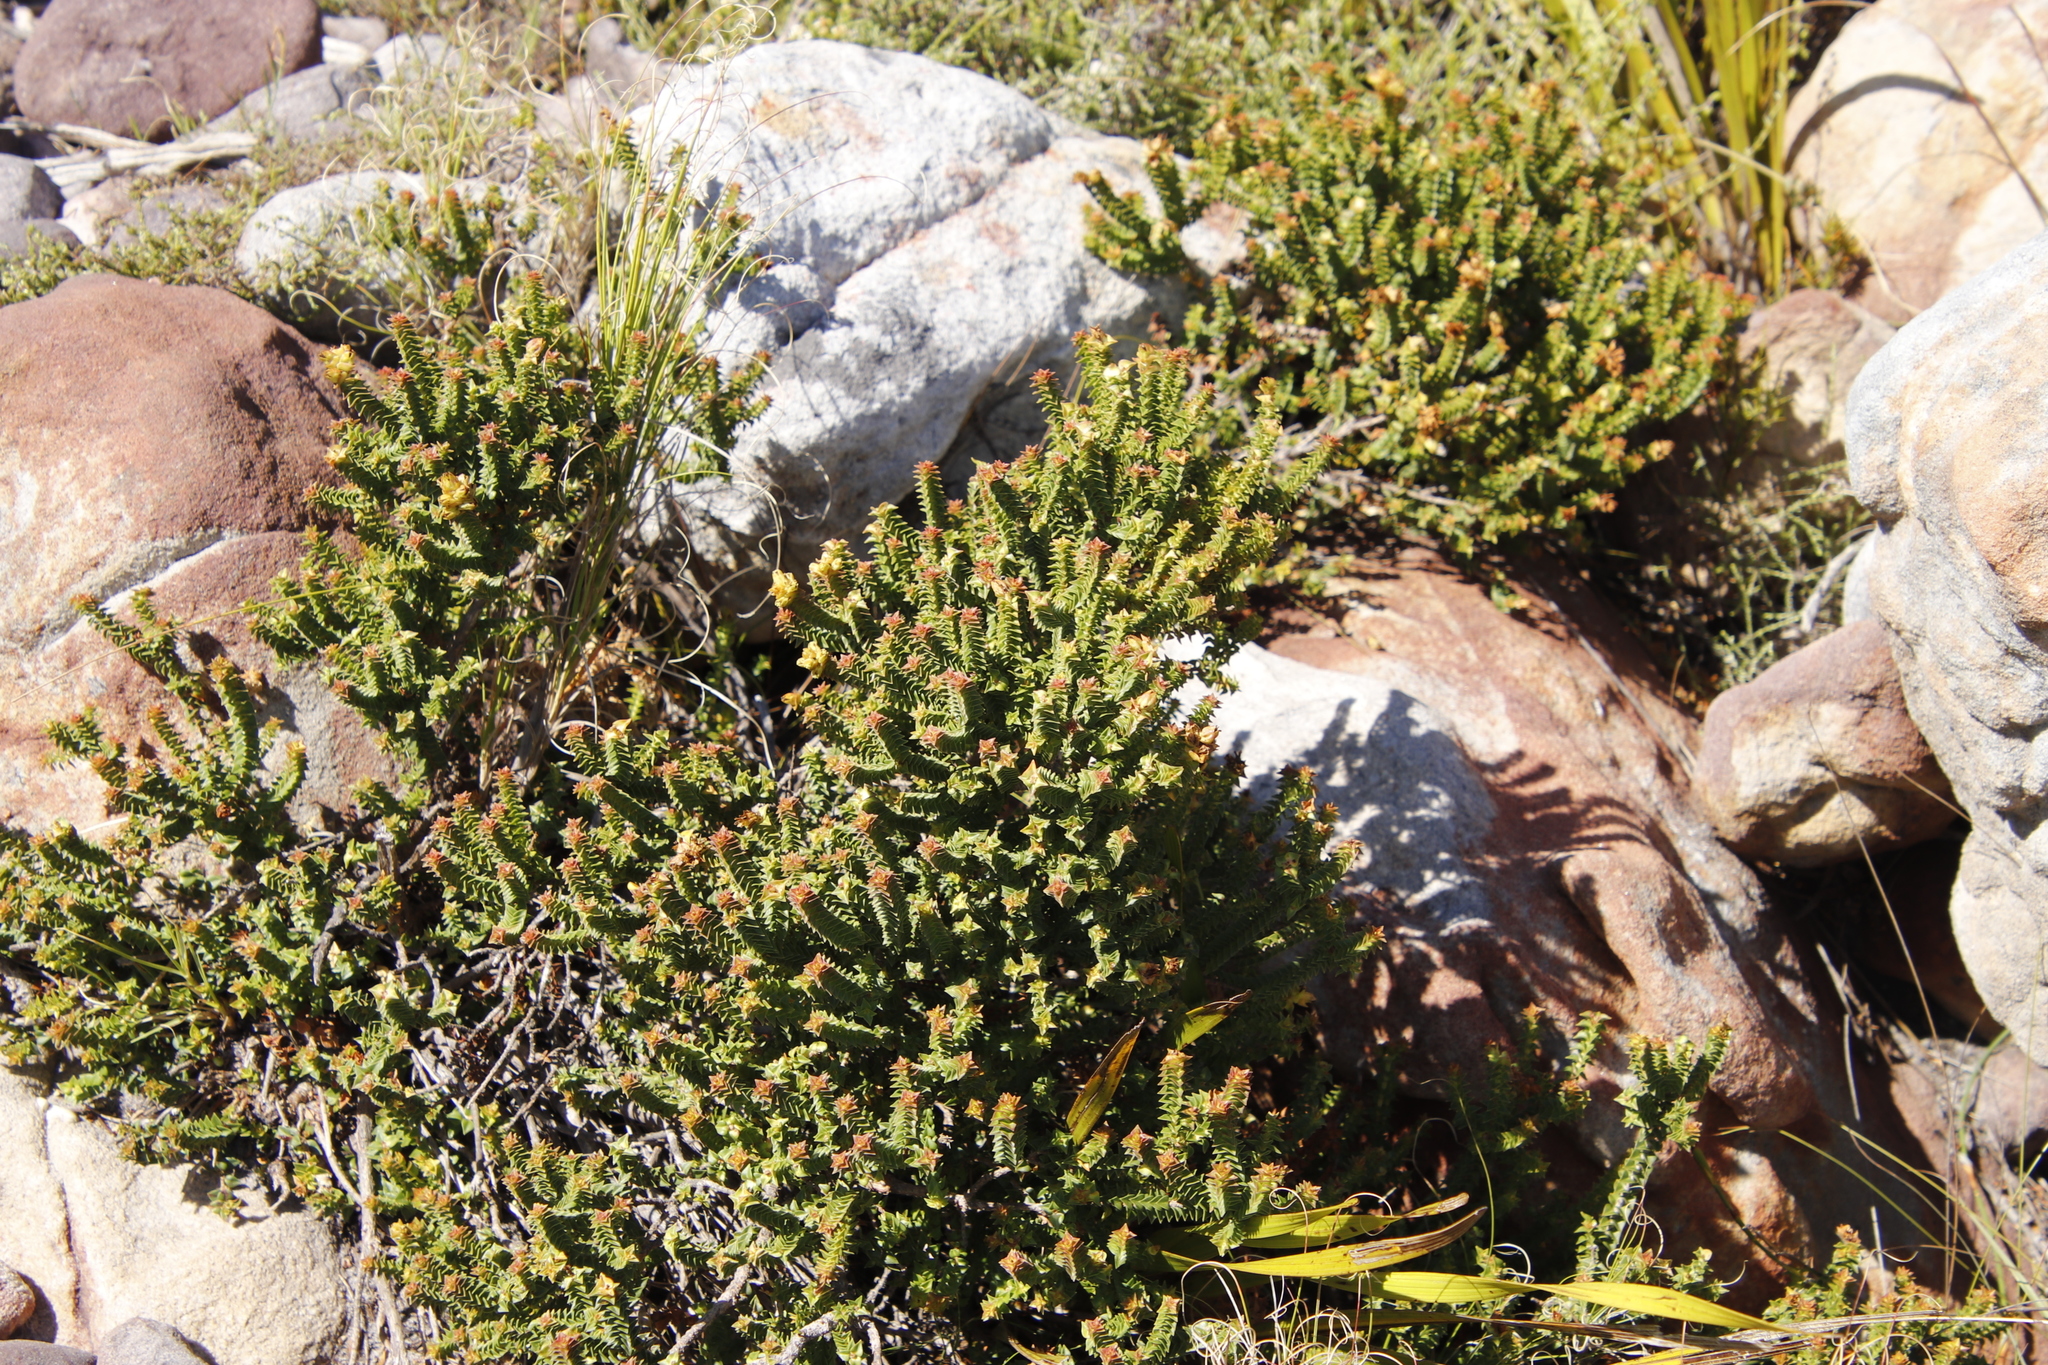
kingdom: Plantae
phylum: Tracheophyta
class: Magnoliopsida
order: Myrtales
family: Penaeaceae
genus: Penaea
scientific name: Penaea mucronata
